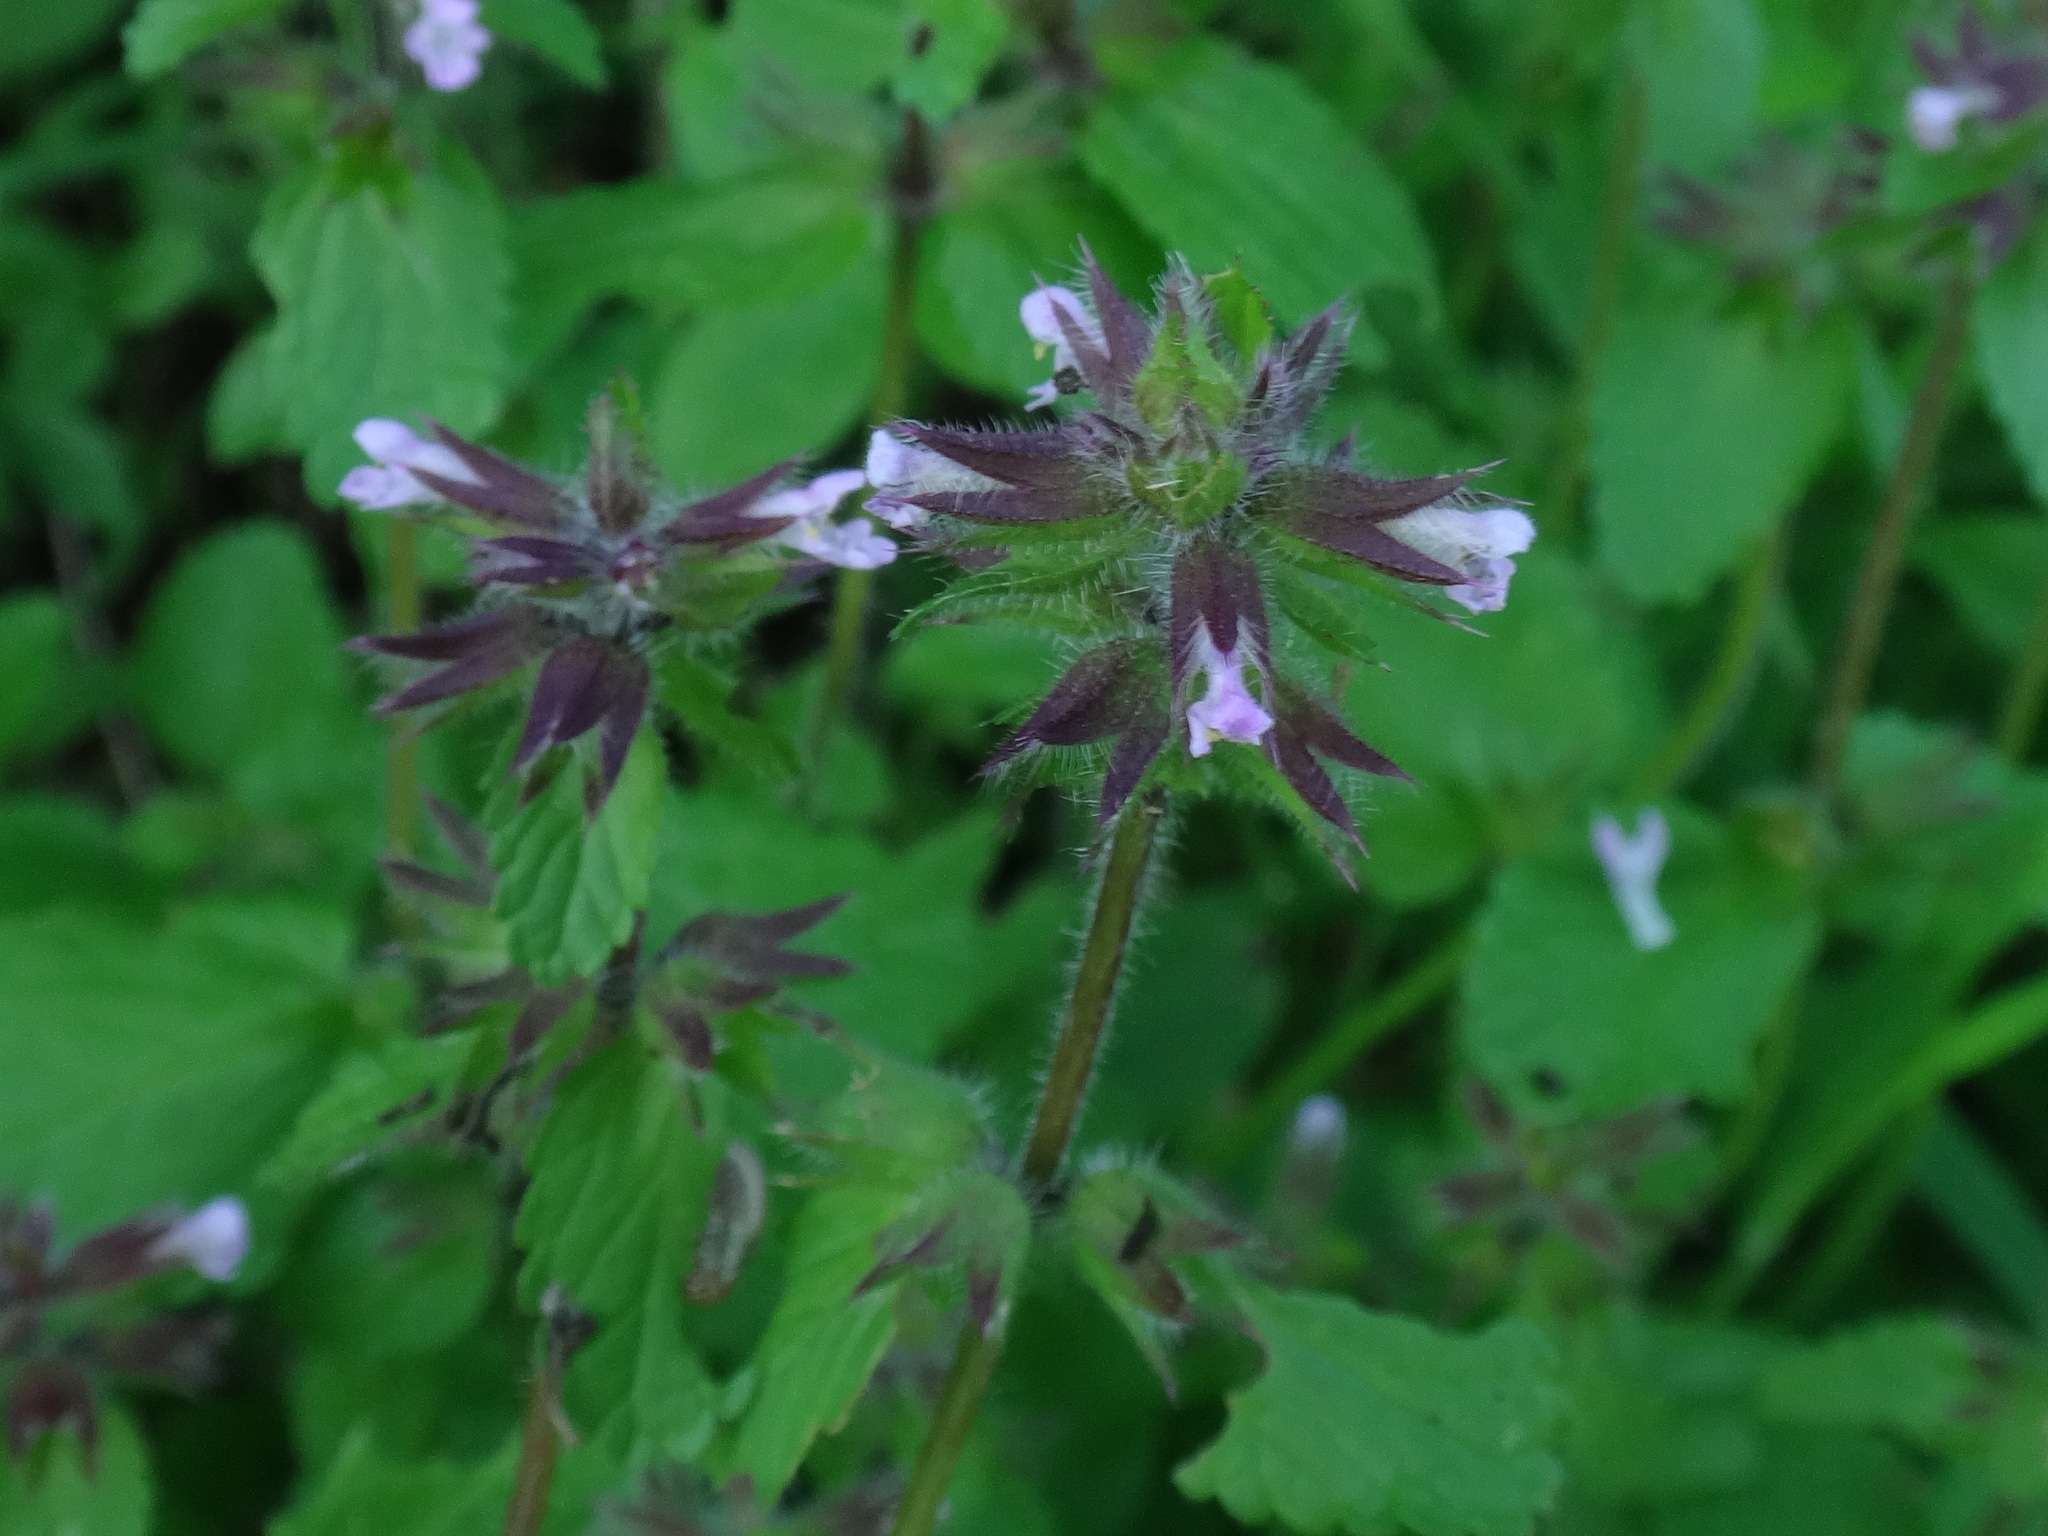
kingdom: Plantae
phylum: Tracheophyta
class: Magnoliopsida
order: Lamiales
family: Lamiaceae
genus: Stachys
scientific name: Stachys arvensis
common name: Field woundwort
